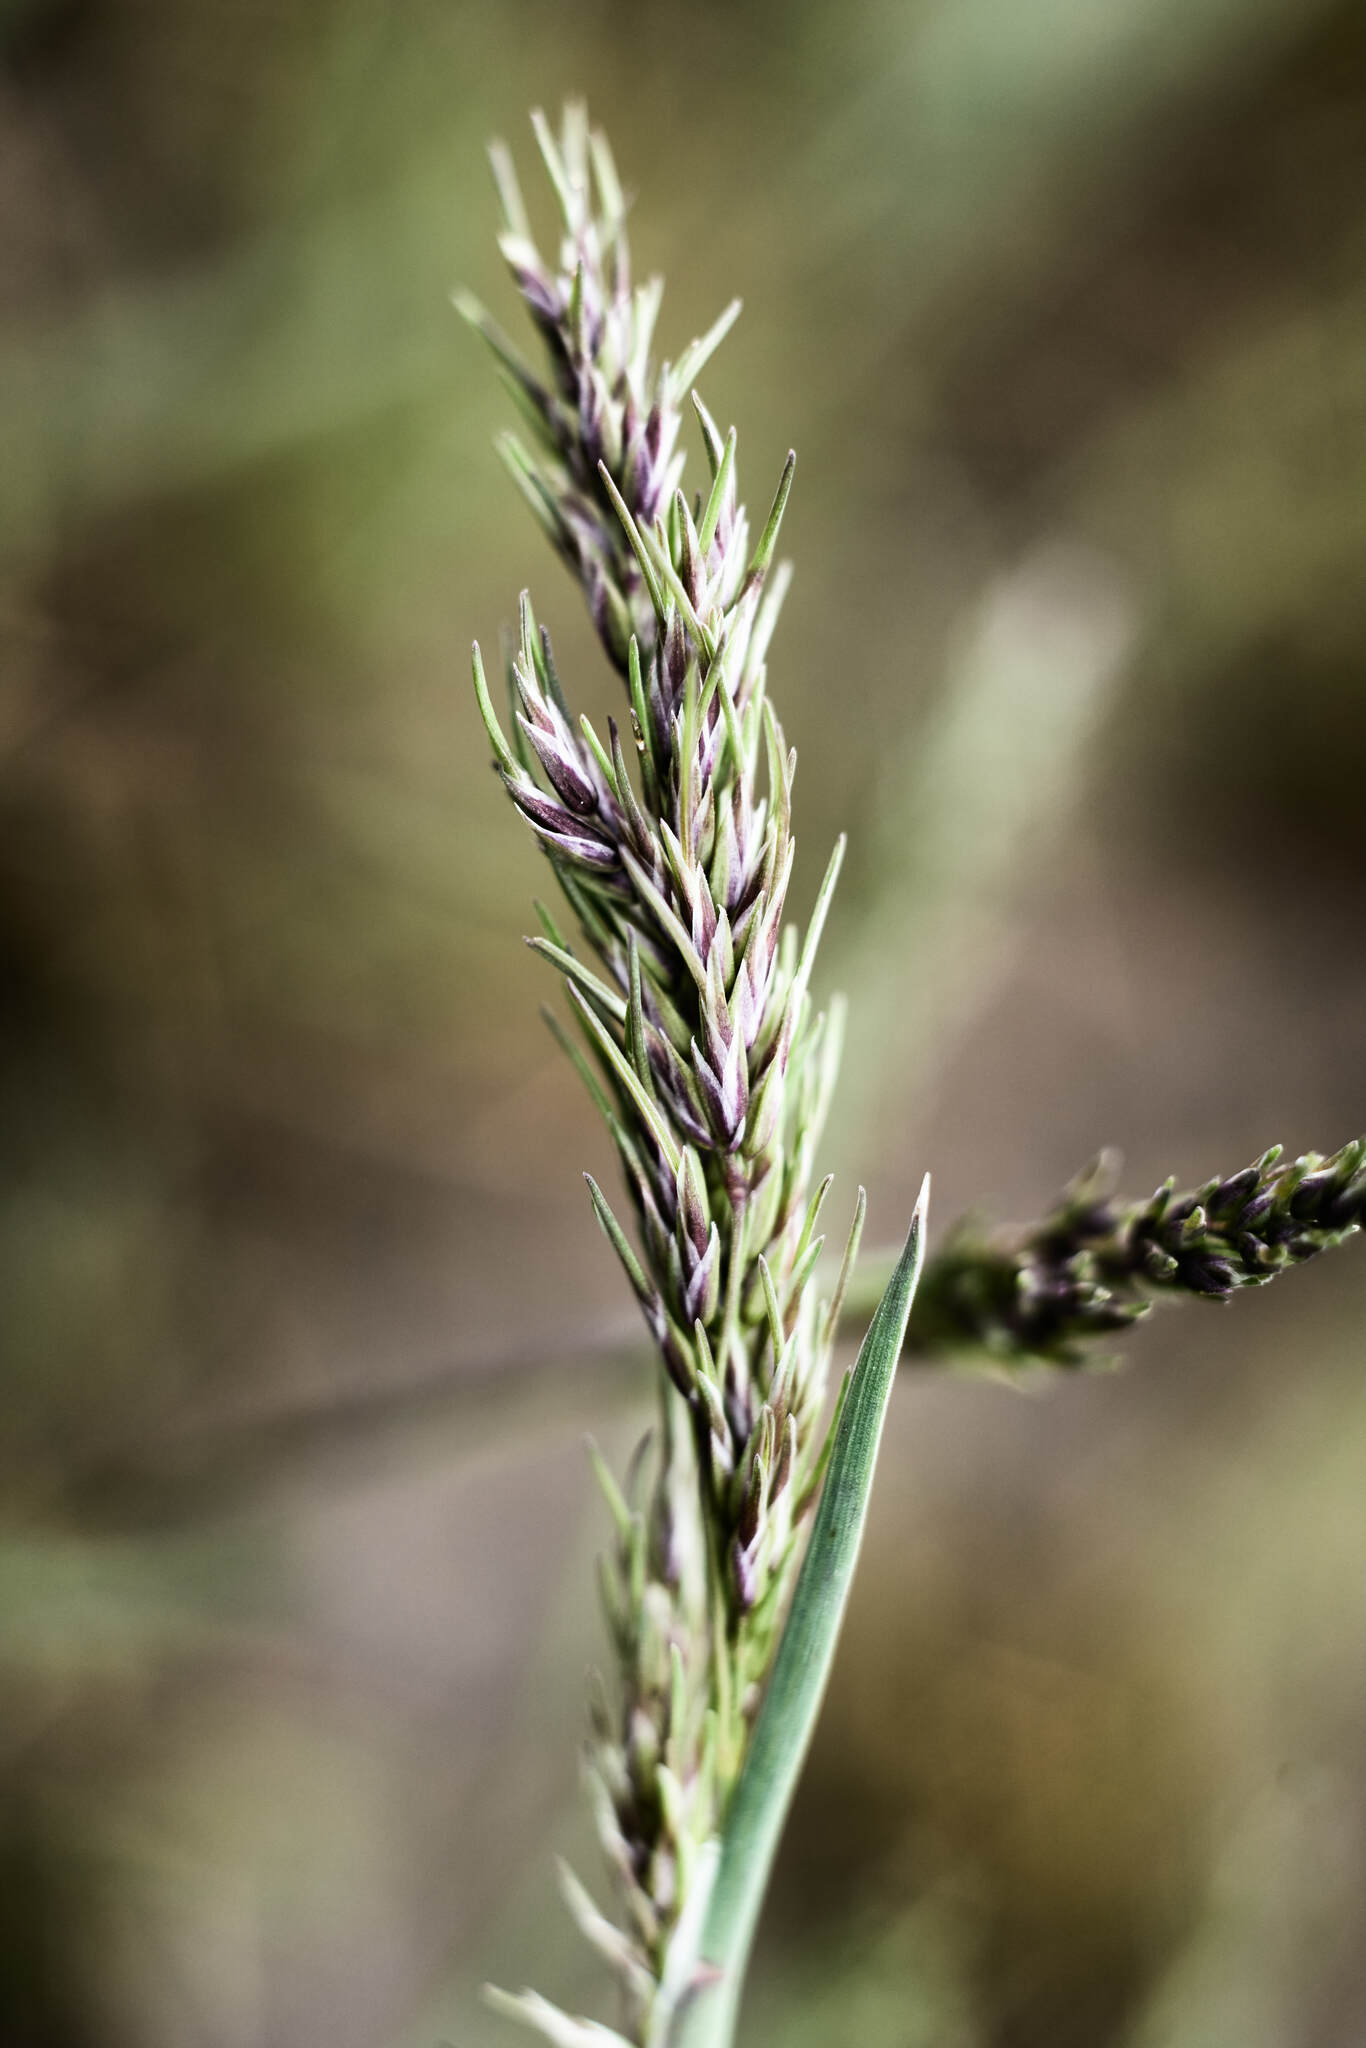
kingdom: Plantae
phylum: Tracheophyta
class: Liliopsida
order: Poales
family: Poaceae
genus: Poa
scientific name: Poa bulbosa
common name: Bulbous bluegrass
